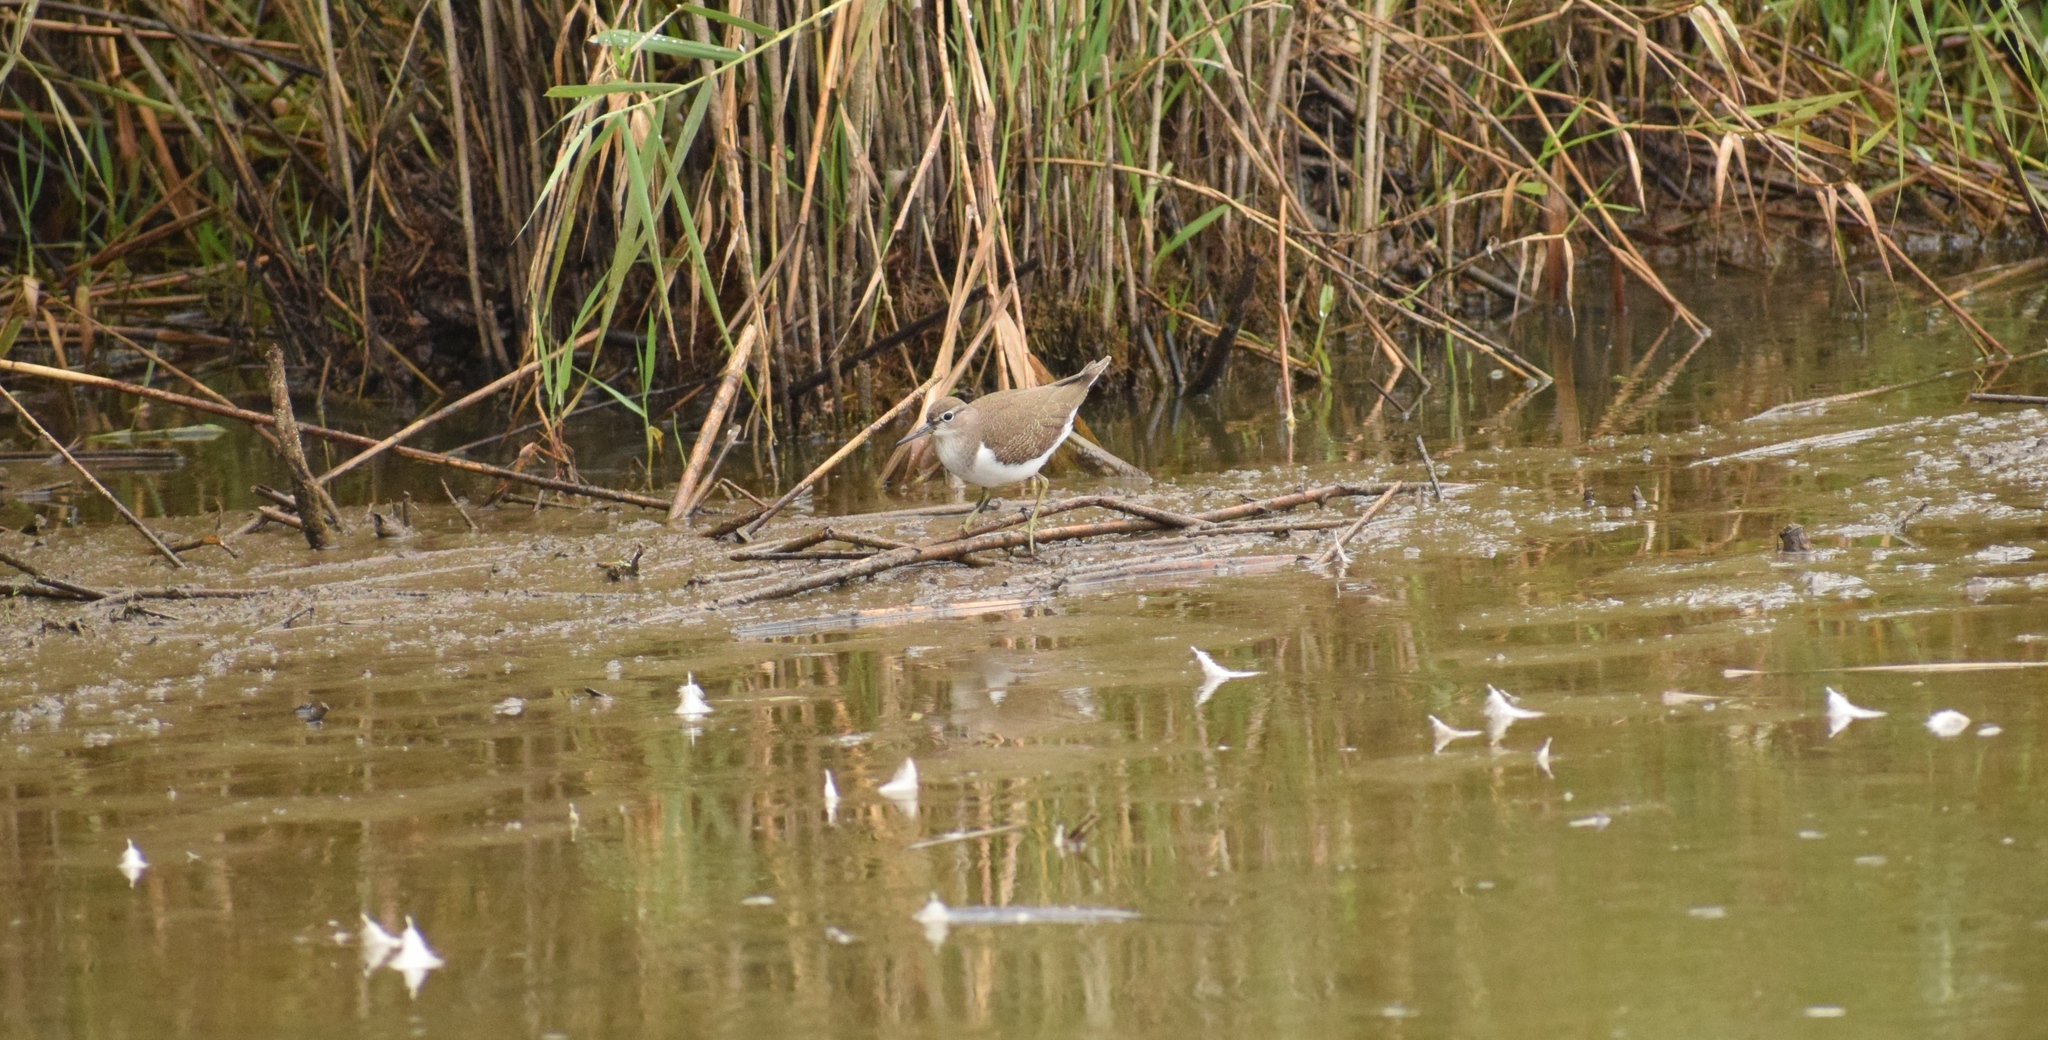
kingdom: Animalia
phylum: Chordata
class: Aves
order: Charadriiformes
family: Scolopacidae
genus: Actitis
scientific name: Actitis hypoleucos
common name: Common sandpiper
